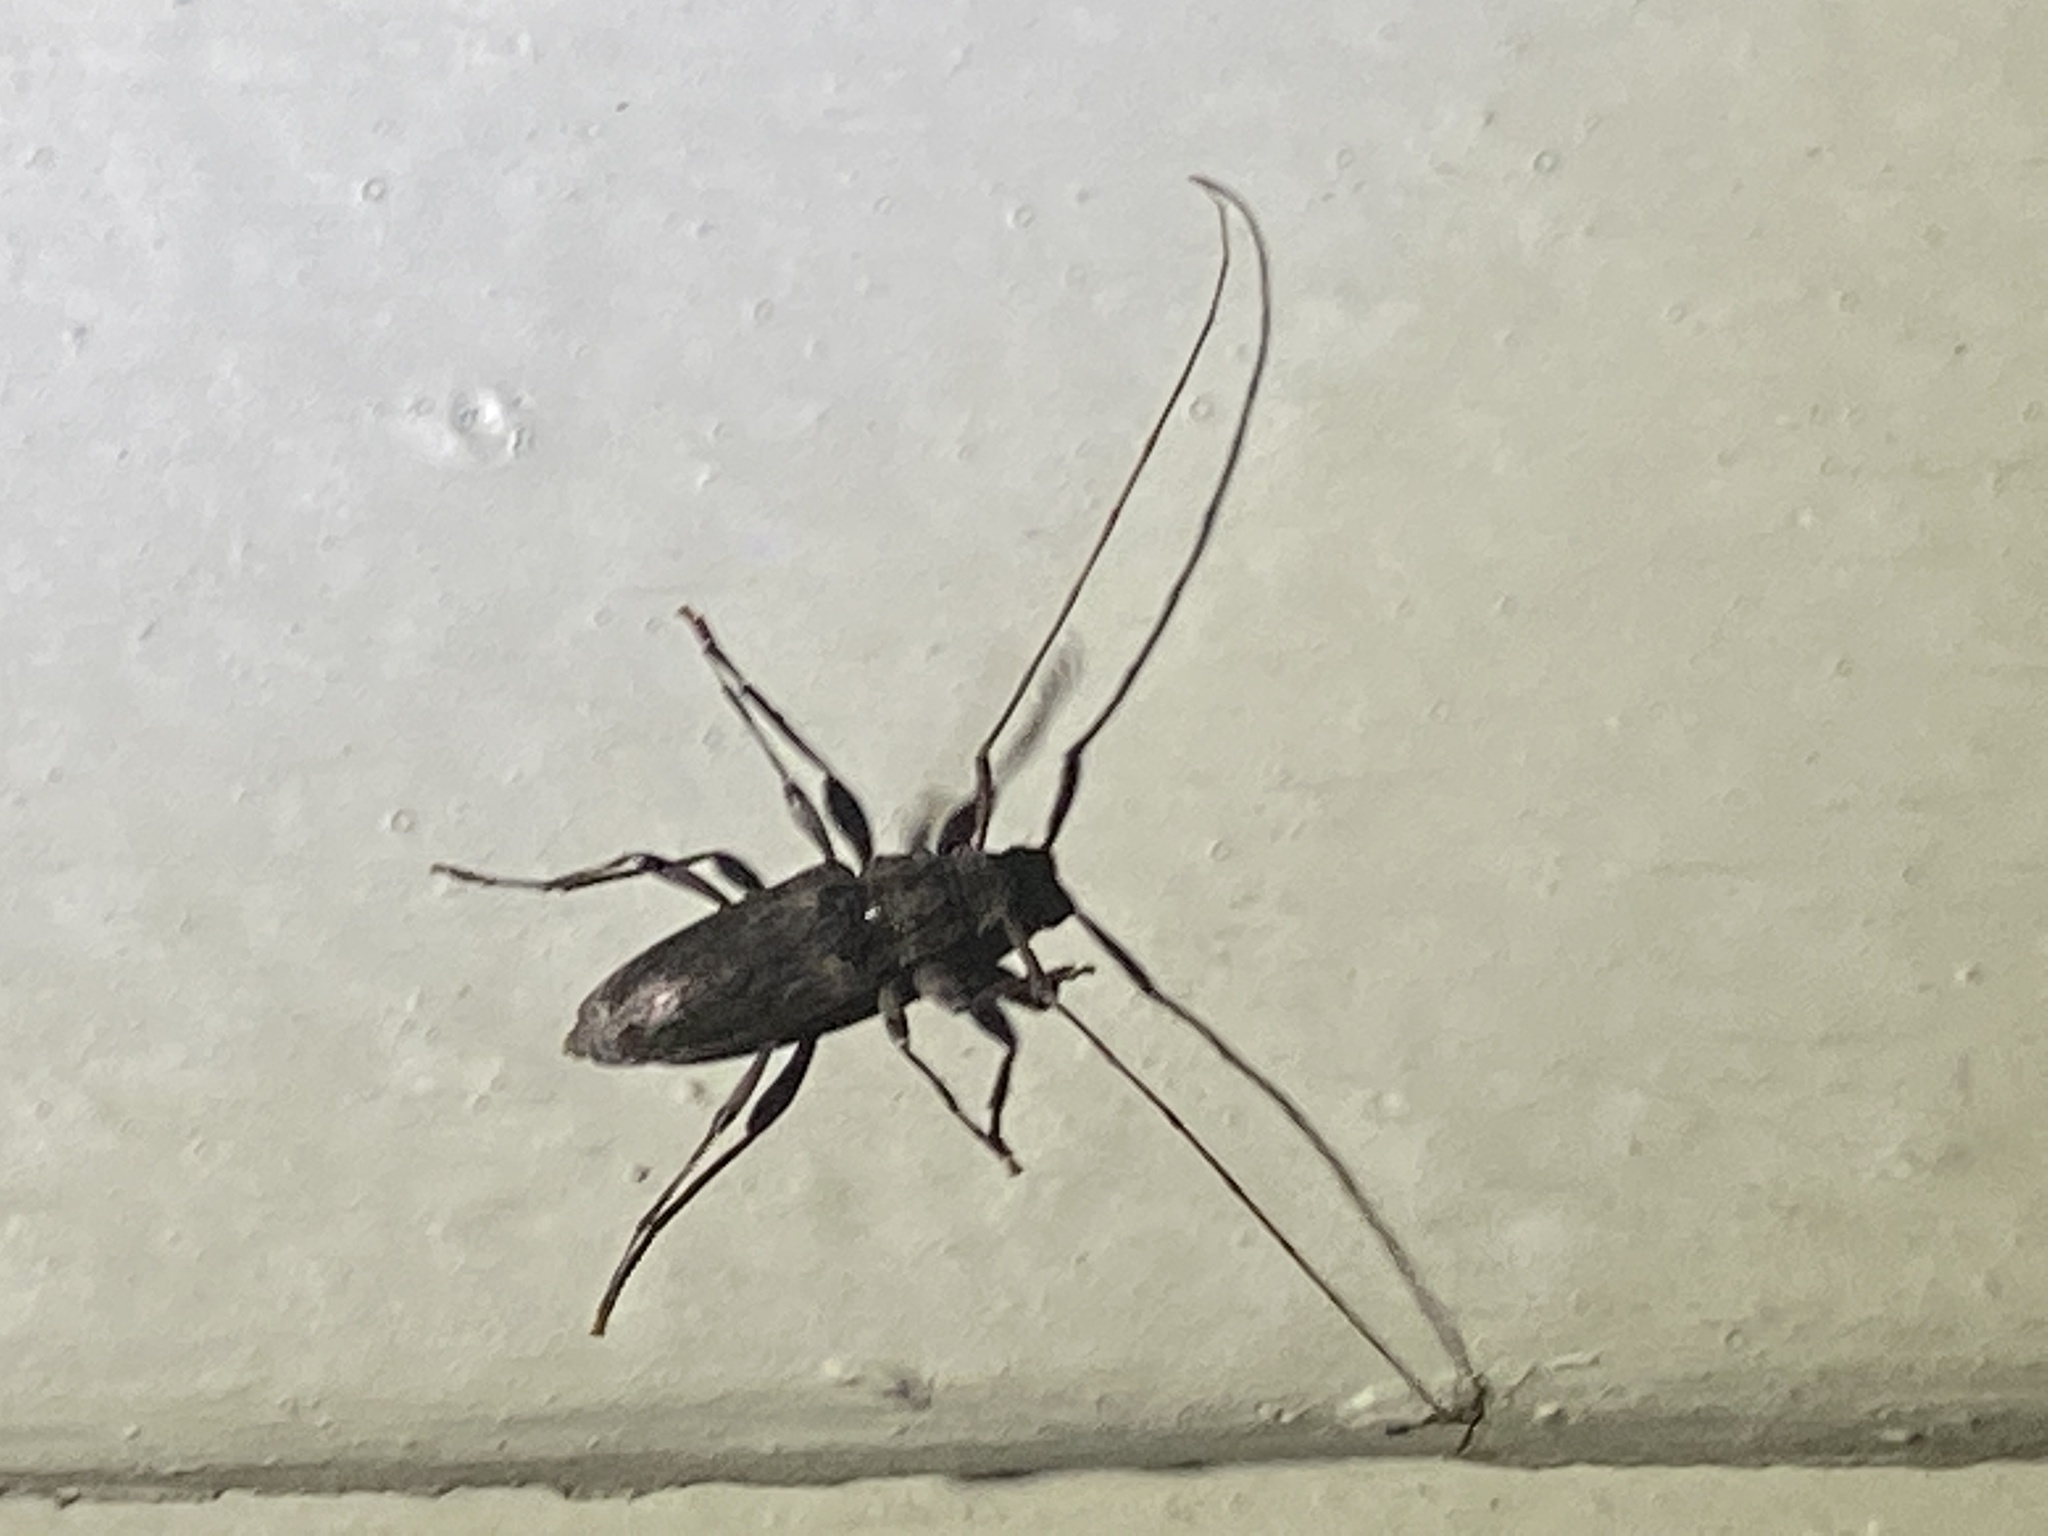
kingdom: Animalia
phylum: Arthropoda
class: Insecta
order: Coleoptera
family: Cerambycidae
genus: Lepturges
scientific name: Lepturges confluens
